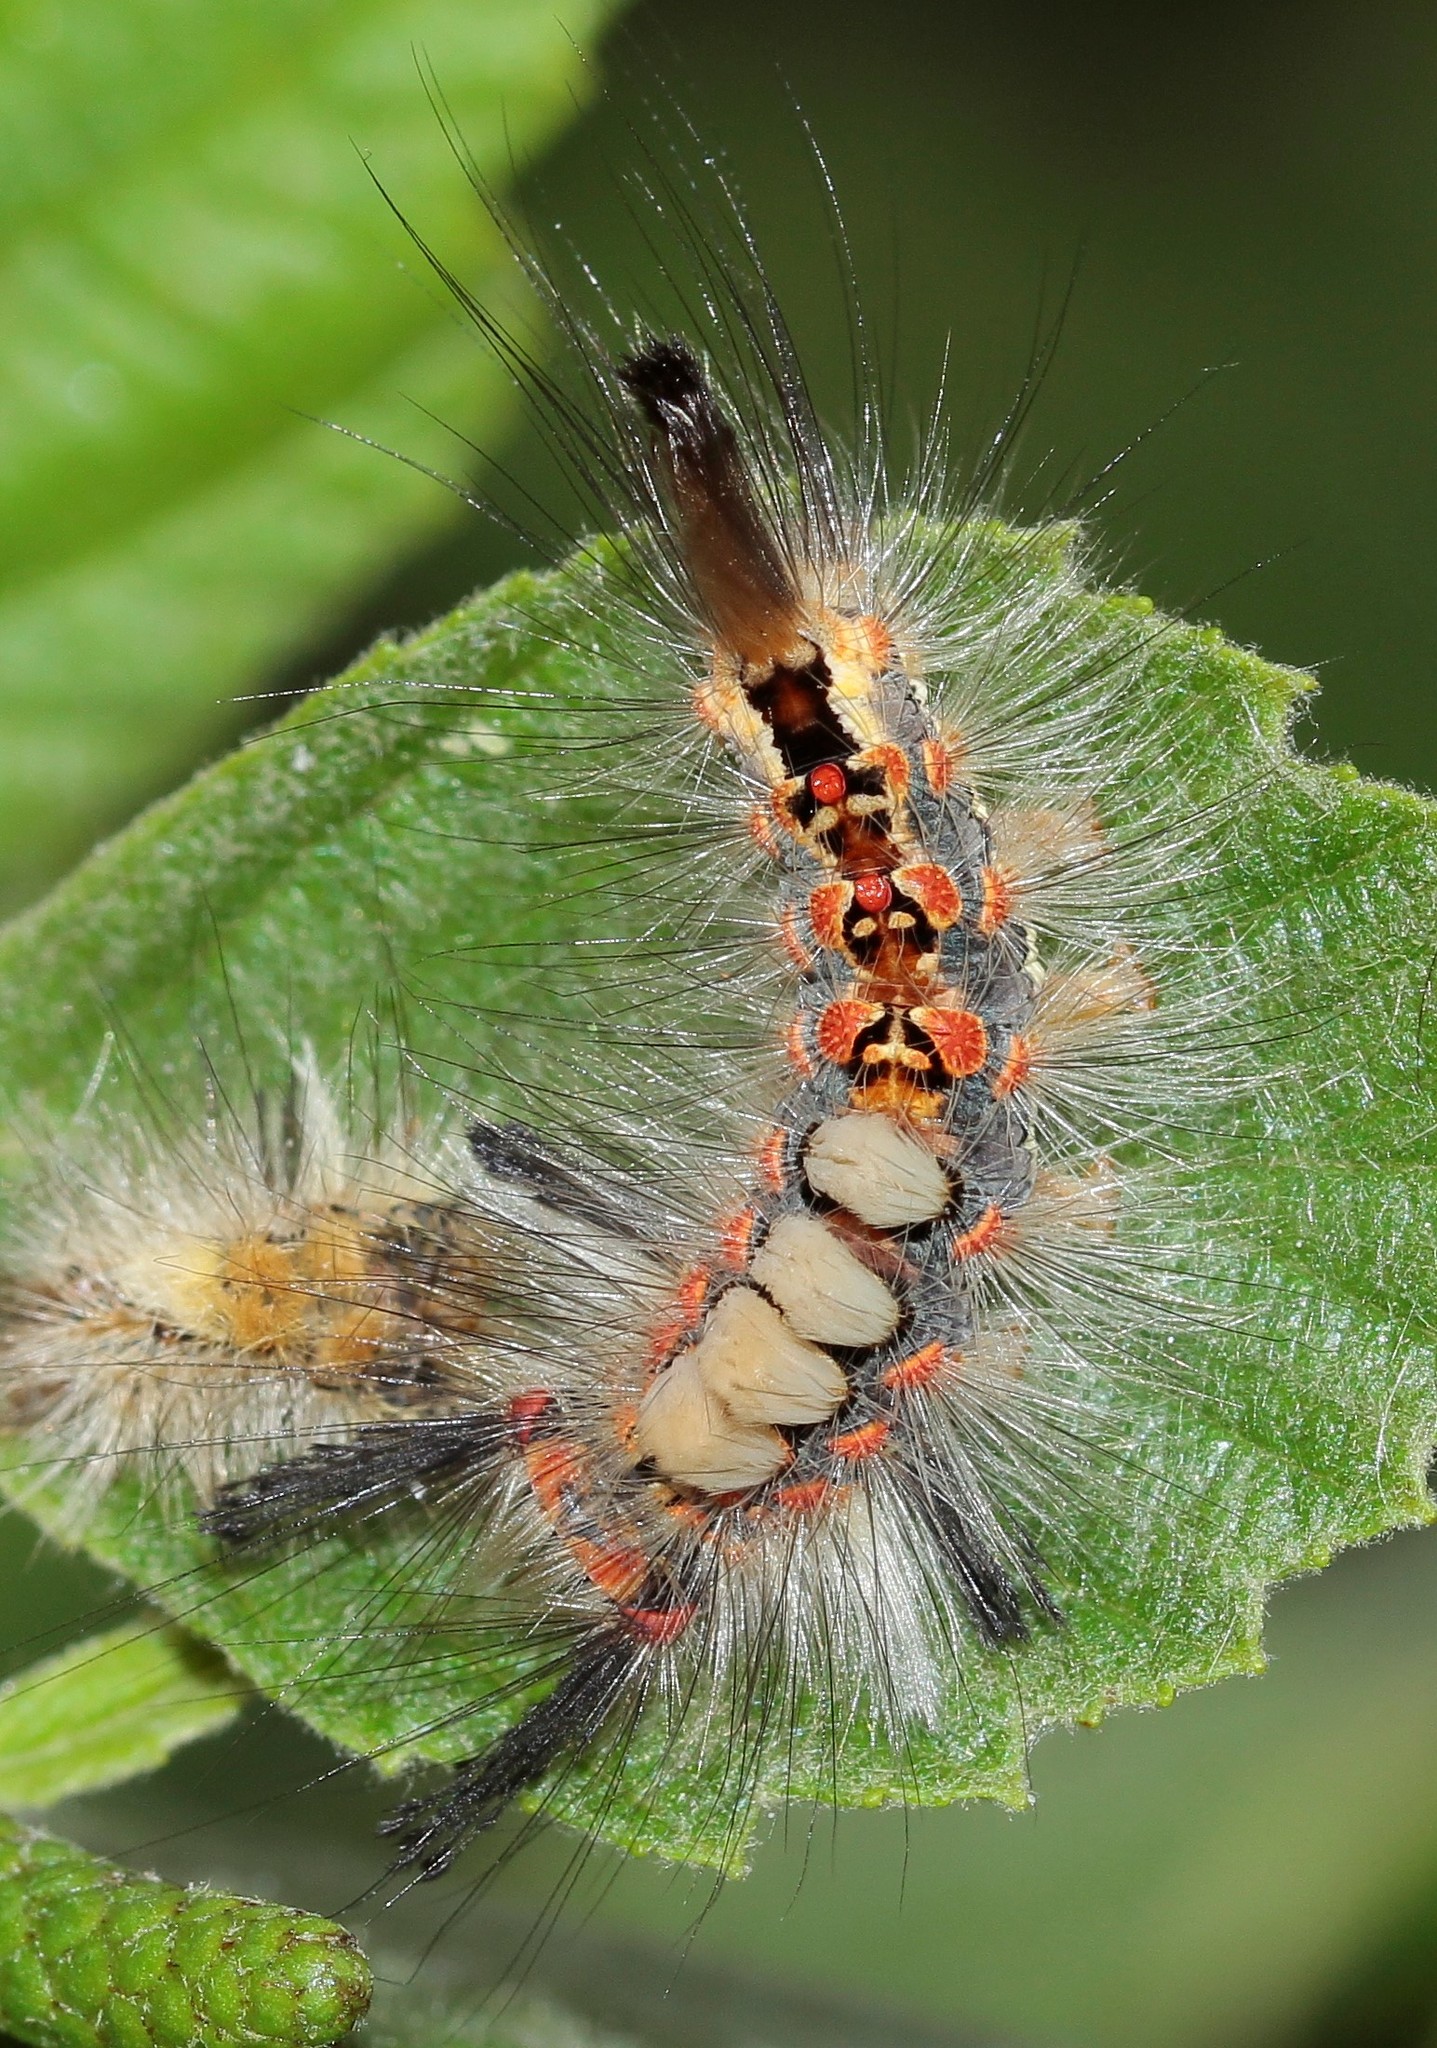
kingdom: Animalia
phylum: Arthropoda
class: Insecta
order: Lepidoptera
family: Erebidae
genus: Orgyia
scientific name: Orgyia antiqua
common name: Vapourer
